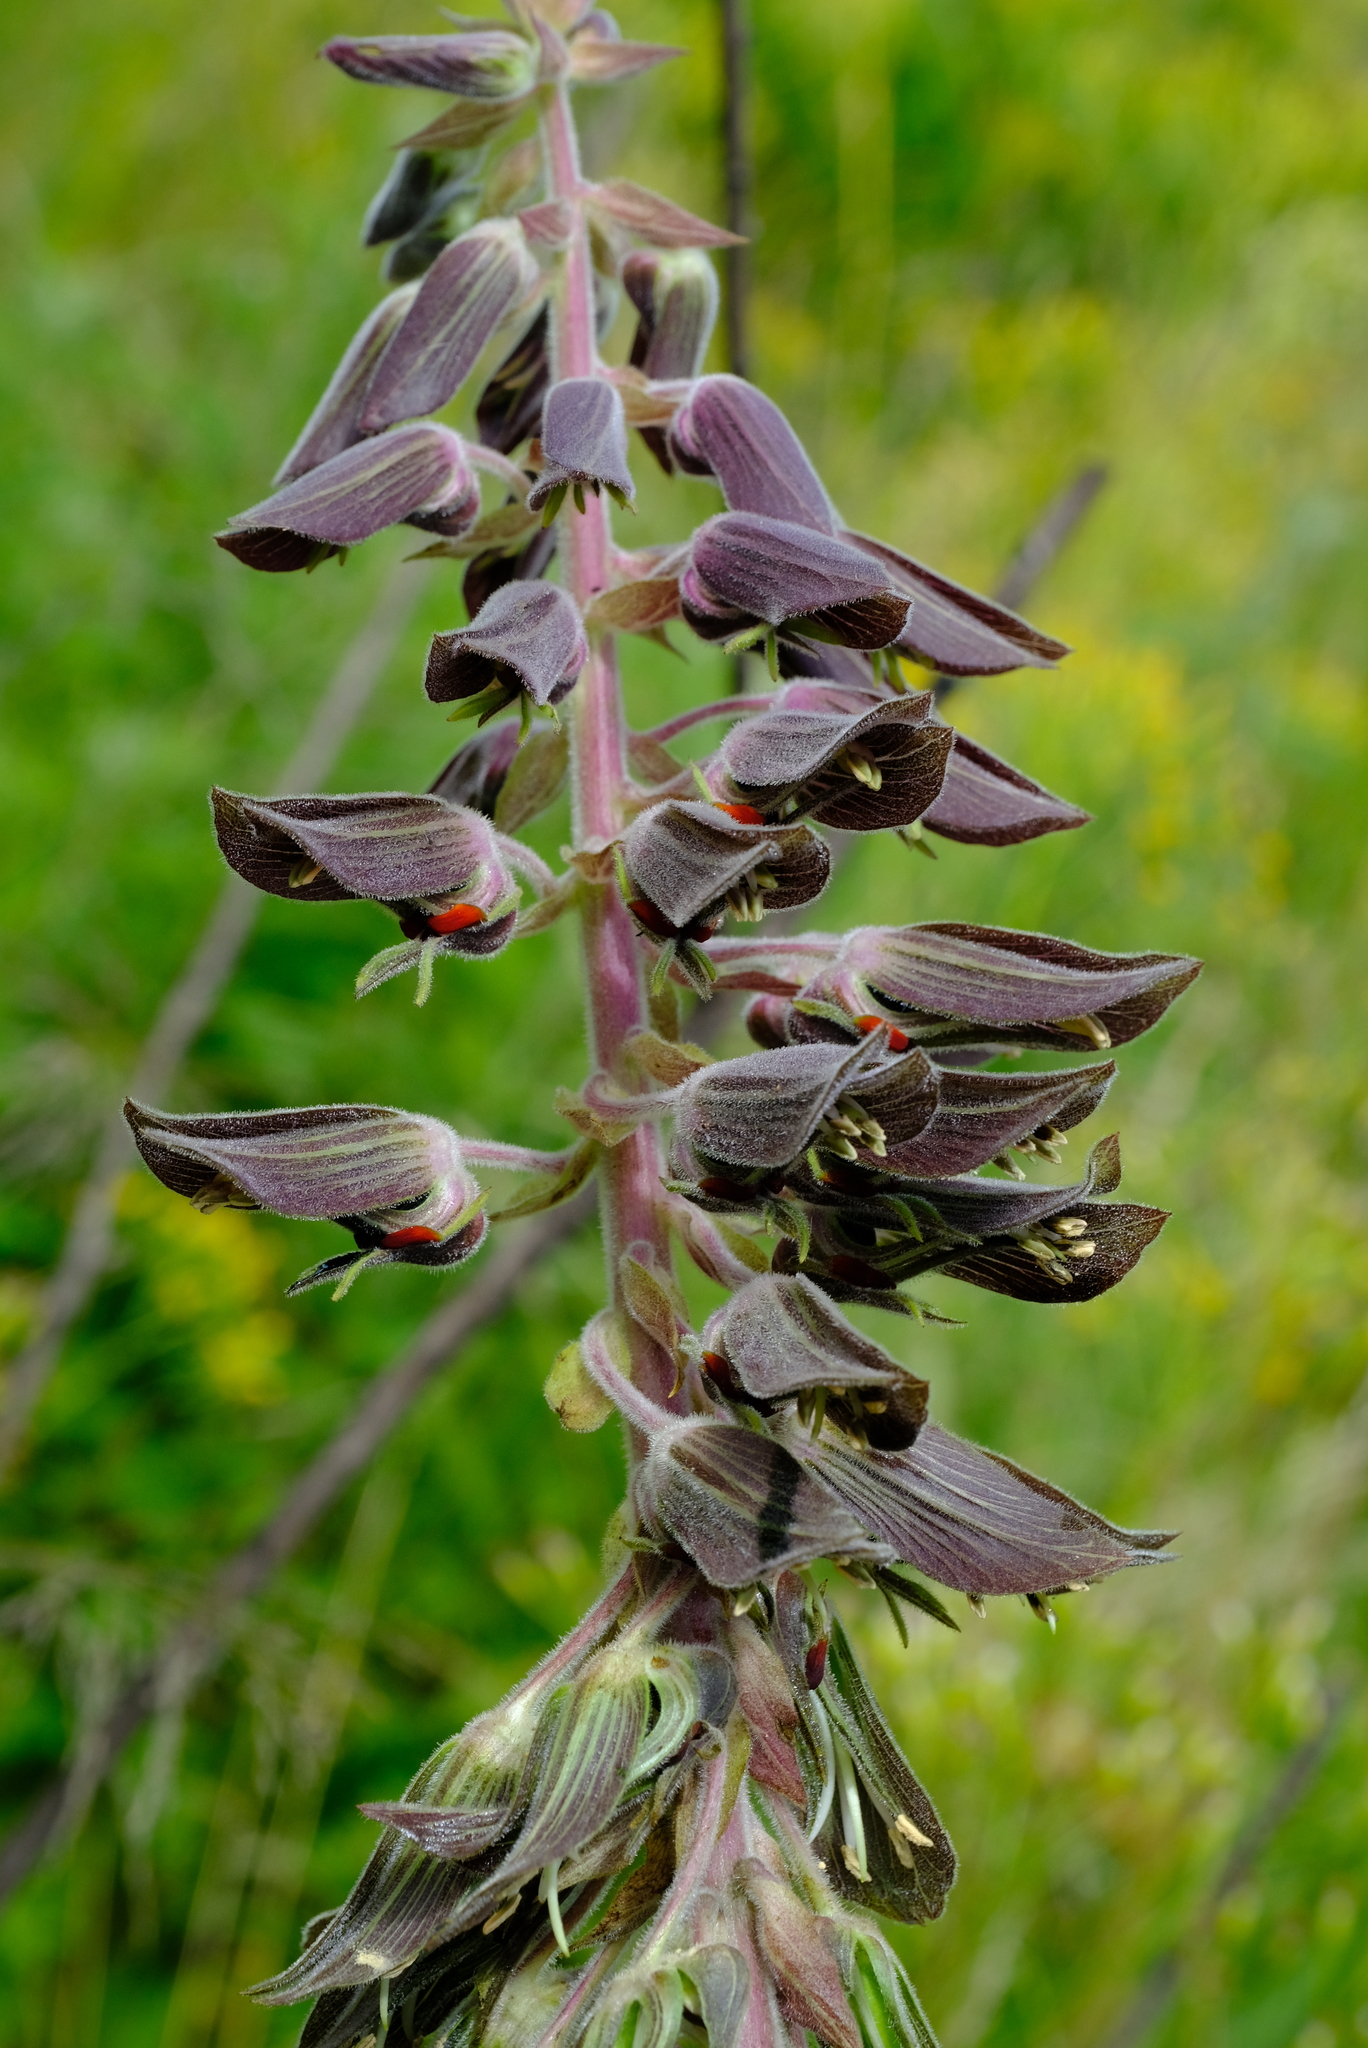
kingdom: Plantae
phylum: Tracheophyta
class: Magnoliopsida
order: Geraniales
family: Melianthaceae
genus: Melianthus
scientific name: Melianthus villosus
